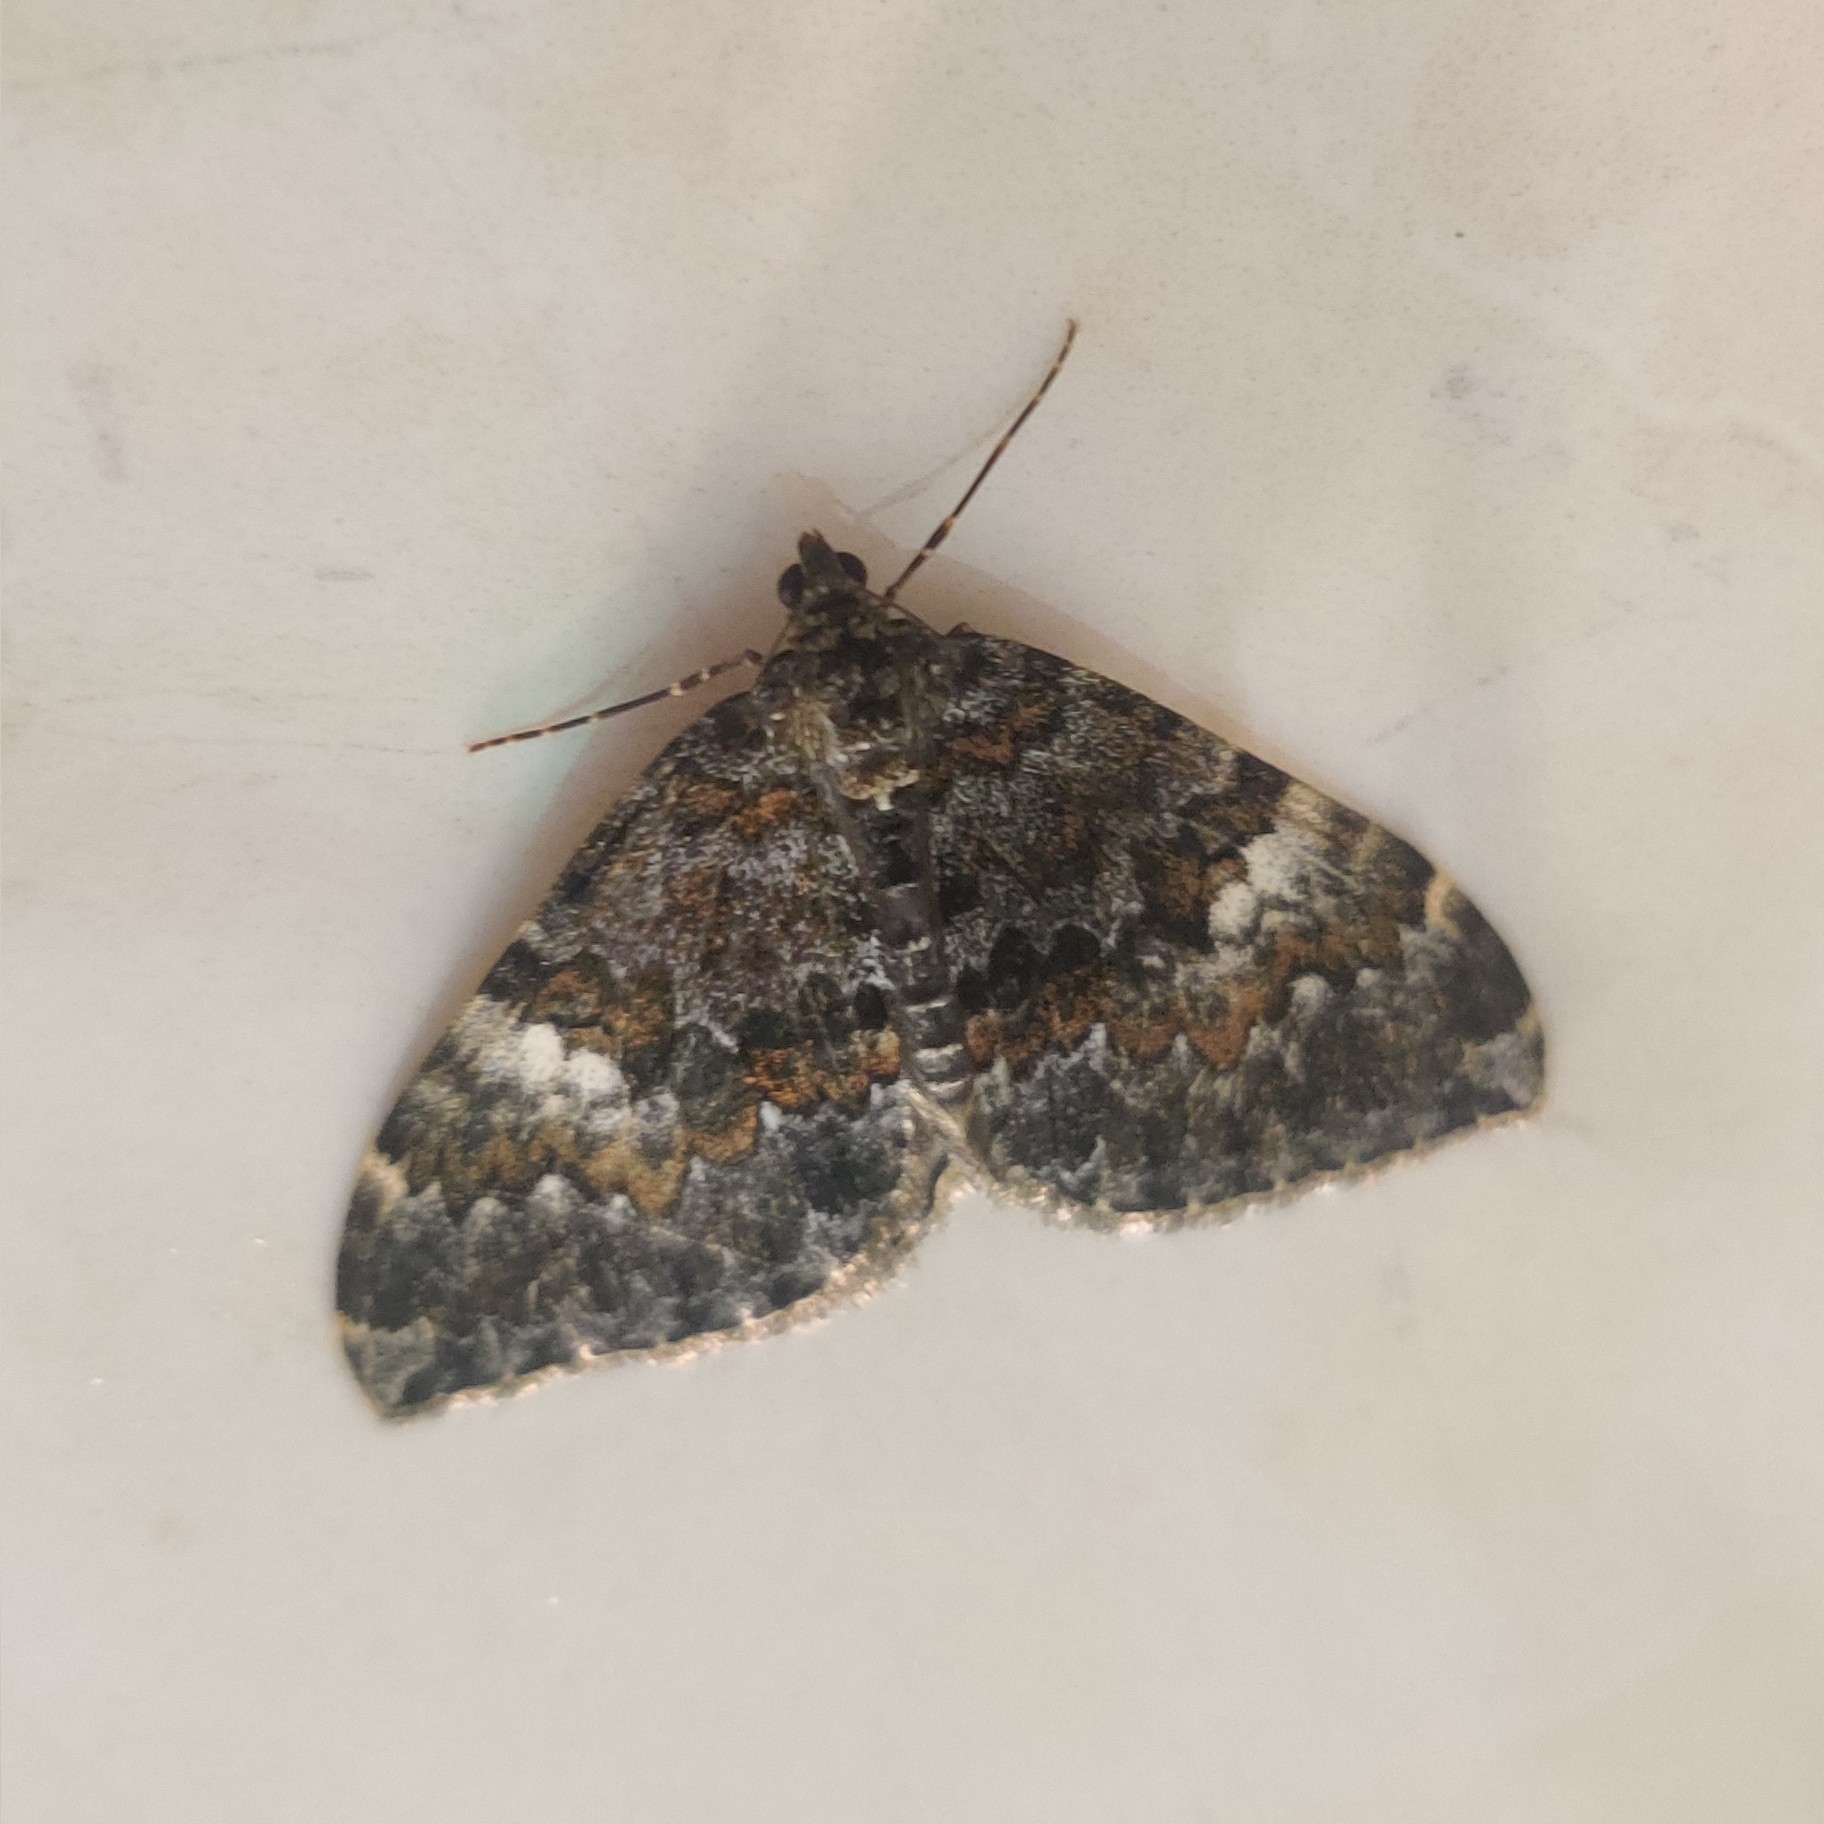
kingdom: Animalia
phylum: Arthropoda
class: Insecta
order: Lepidoptera
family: Geometridae
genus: Photoscotosia
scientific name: Photoscotosia amplicata
